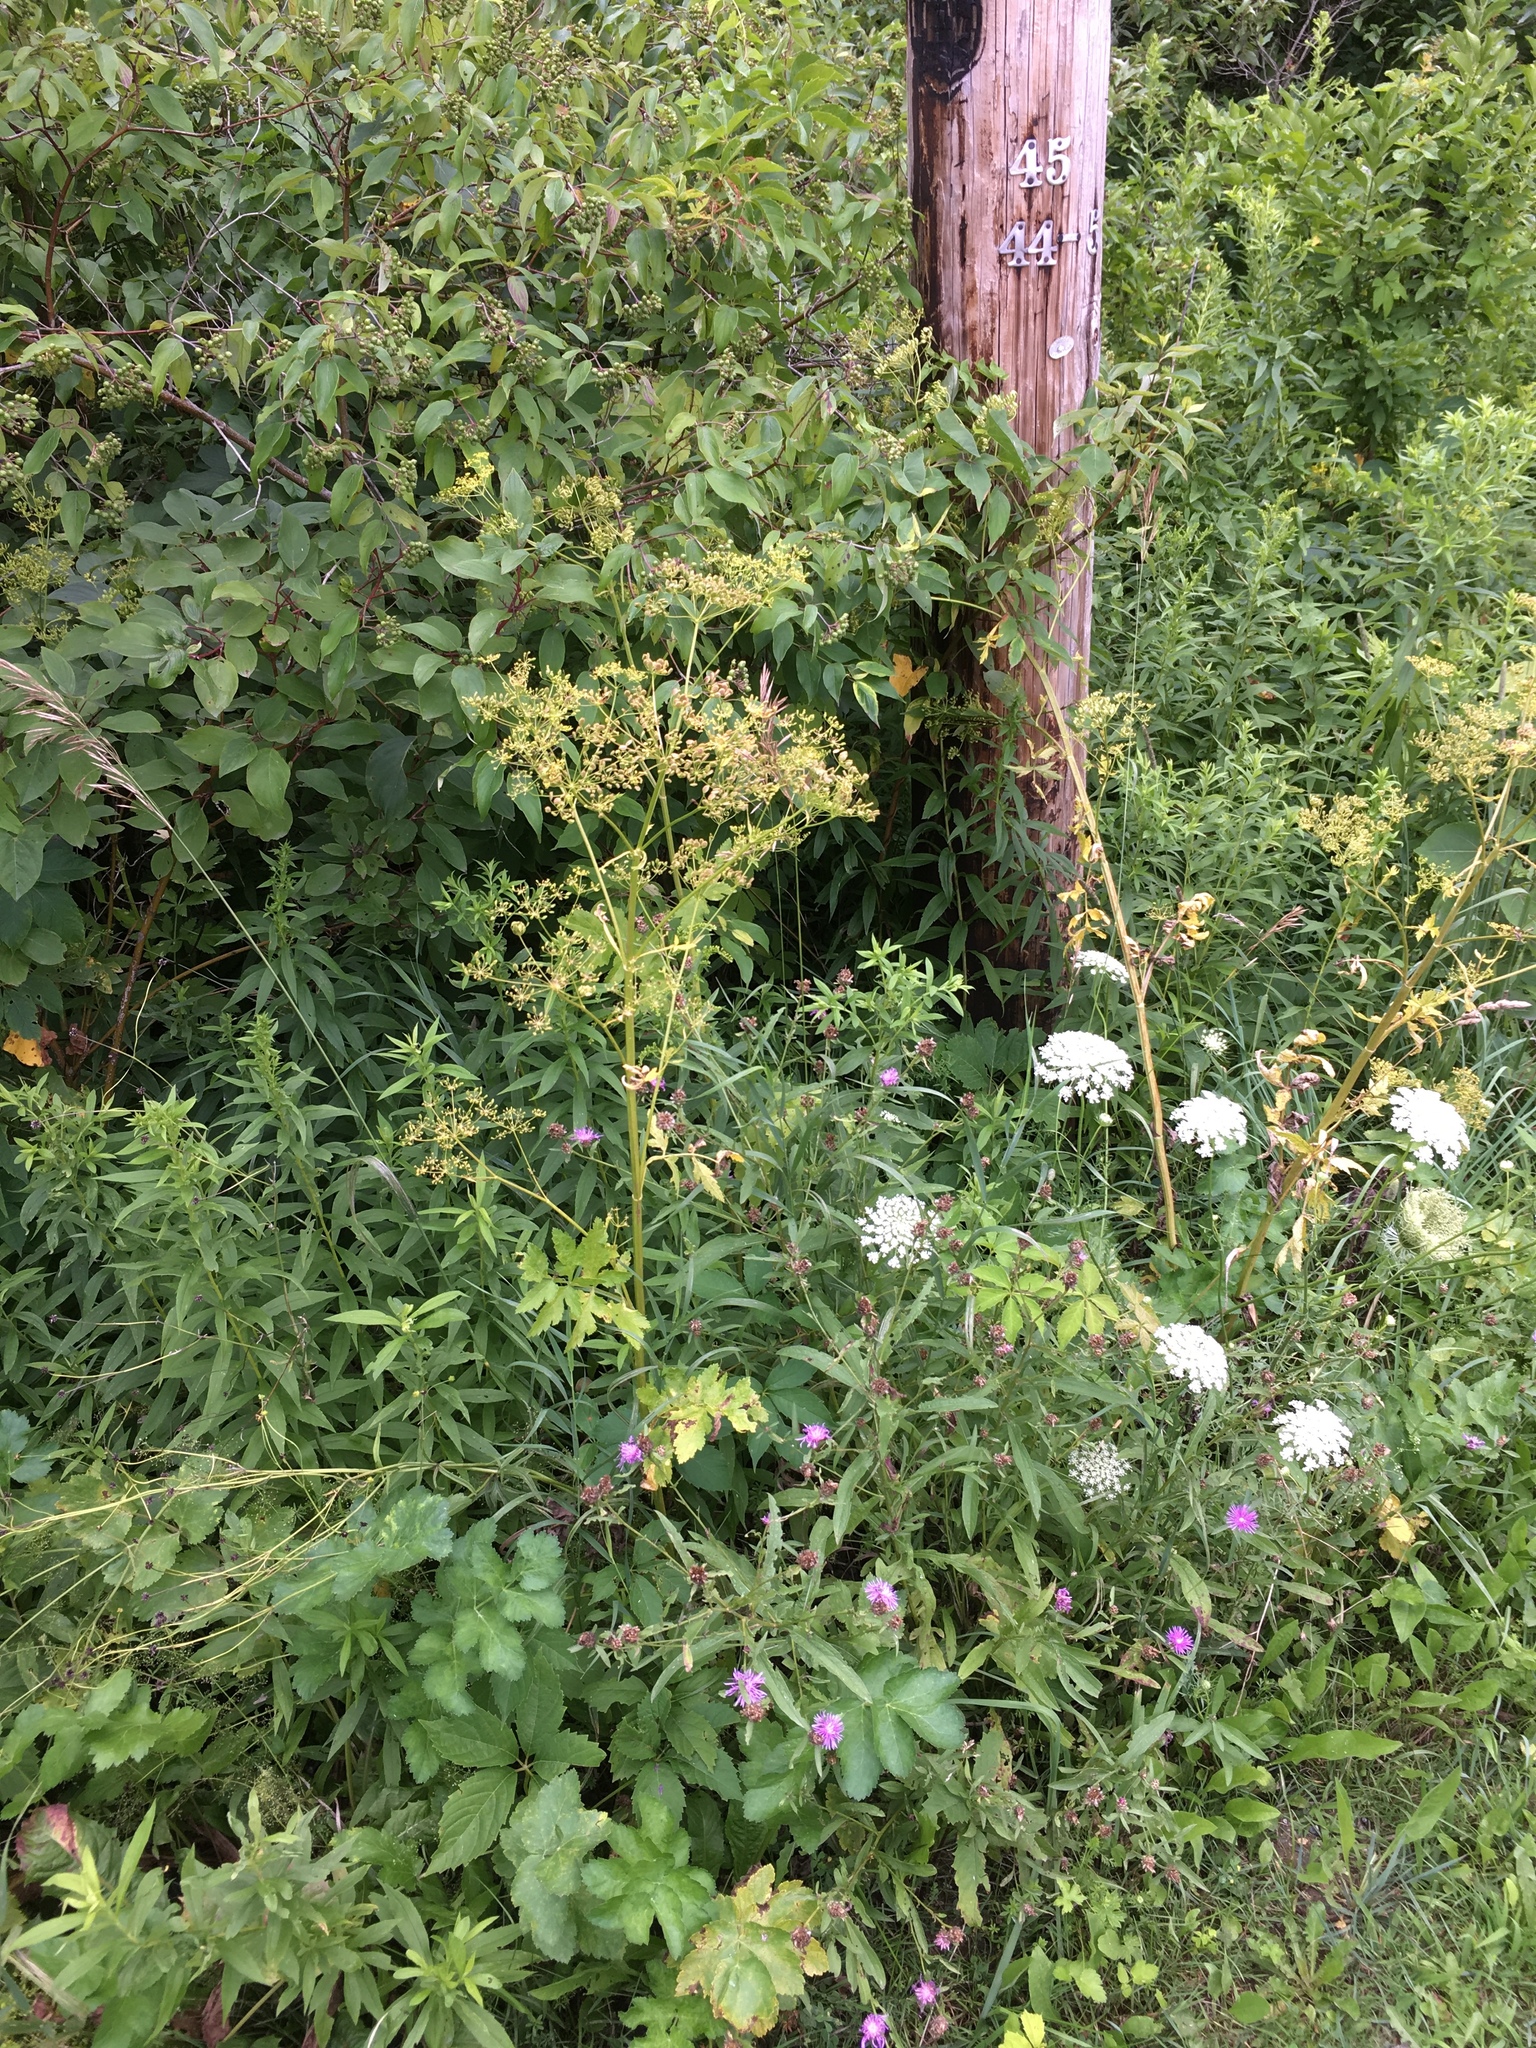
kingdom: Plantae
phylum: Tracheophyta
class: Magnoliopsida
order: Apiales
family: Apiaceae
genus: Pastinaca
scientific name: Pastinaca sativa
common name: Wild parsnip
